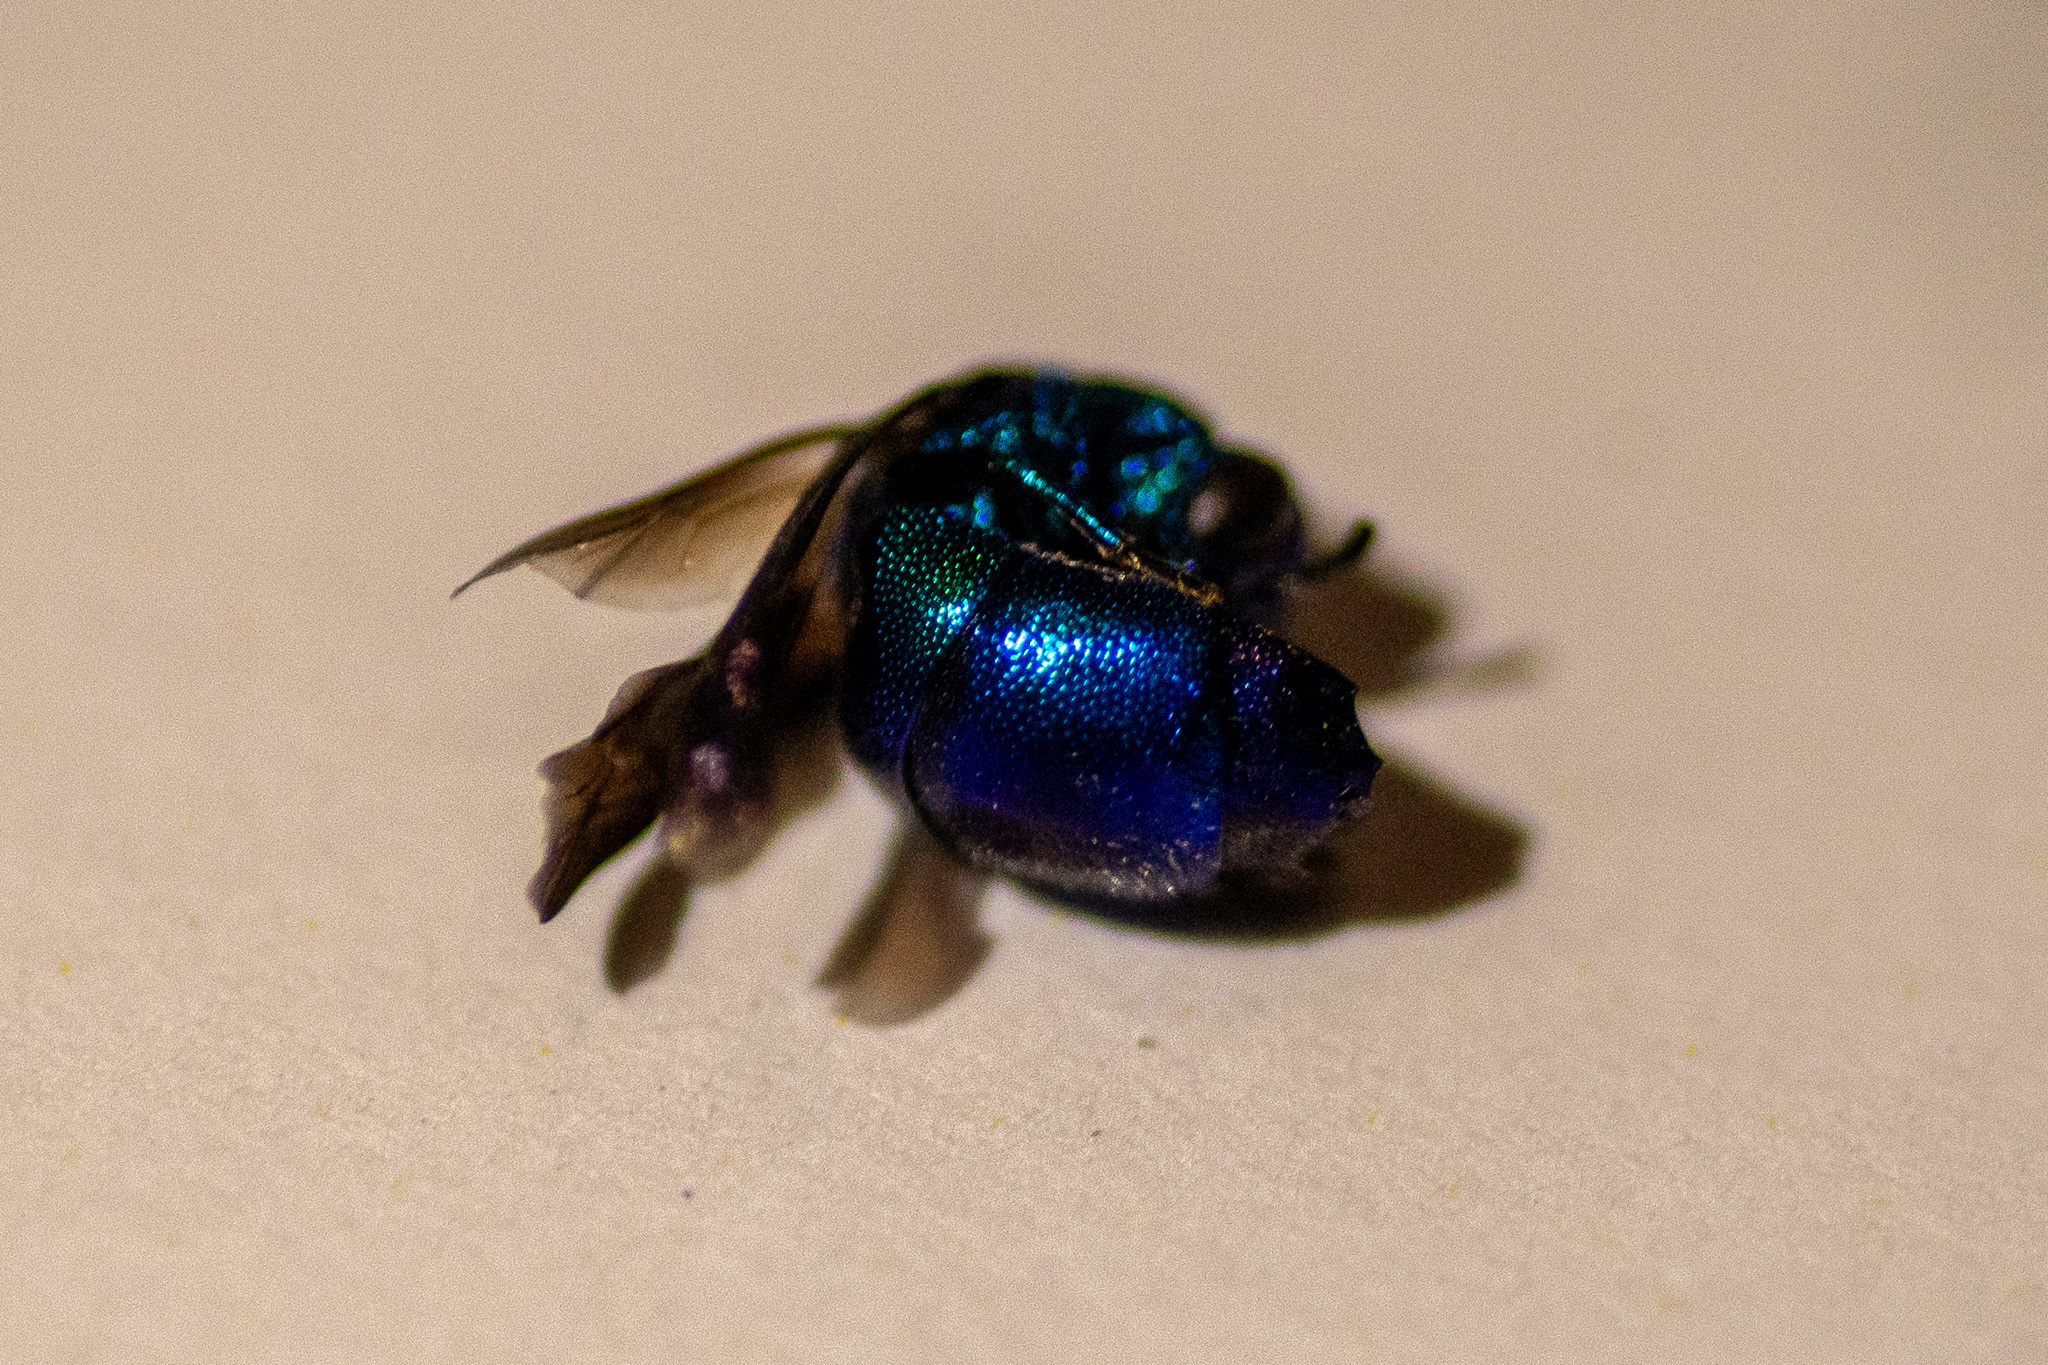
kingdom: Animalia
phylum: Arthropoda
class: Insecta
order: Hymenoptera
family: Chrysididae
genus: Chrysis
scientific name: Chrysis angolensis
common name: Cuckoo wasp
